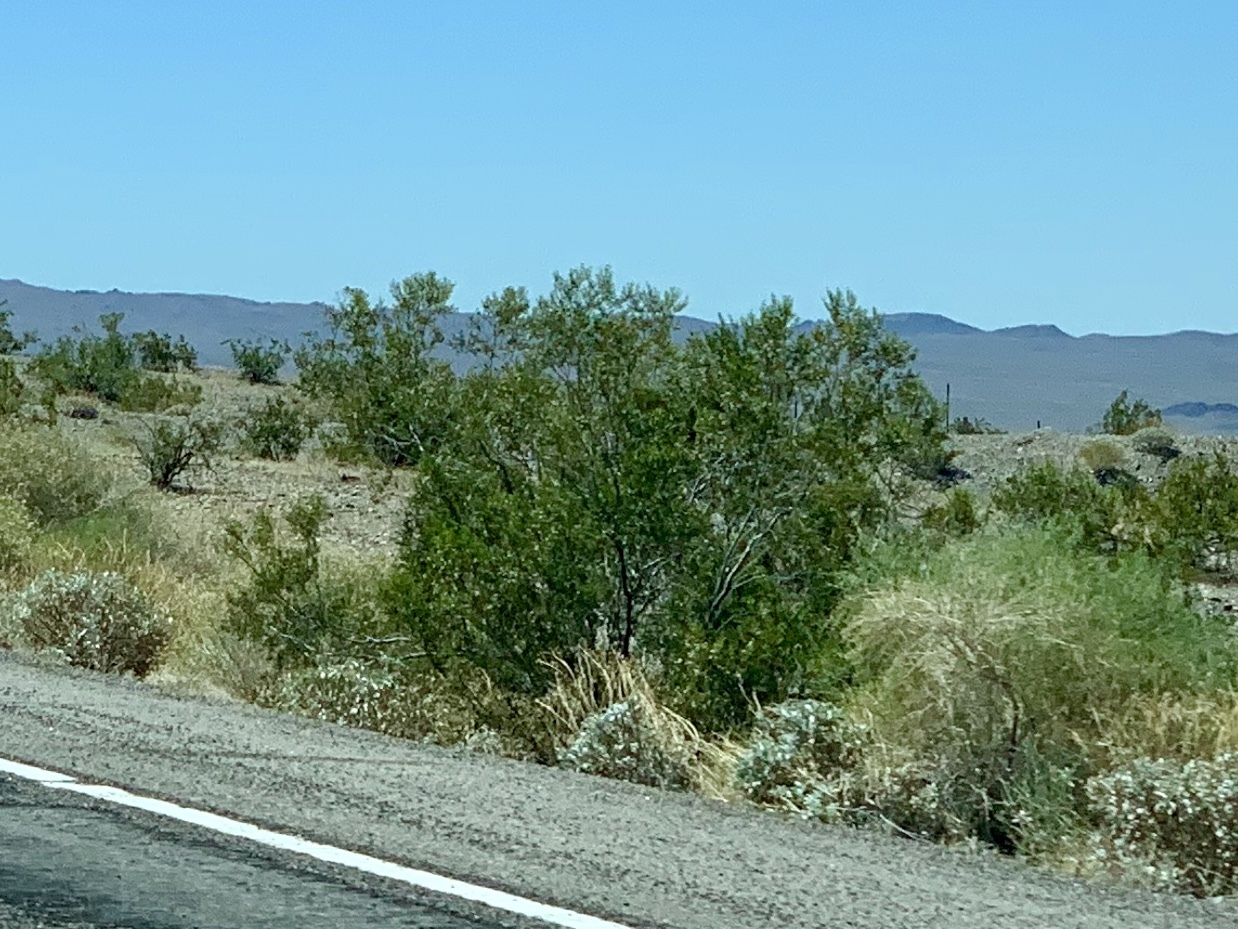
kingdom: Plantae
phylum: Tracheophyta
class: Magnoliopsida
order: Zygophyllales
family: Zygophyllaceae
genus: Larrea
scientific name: Larrea tridentata
